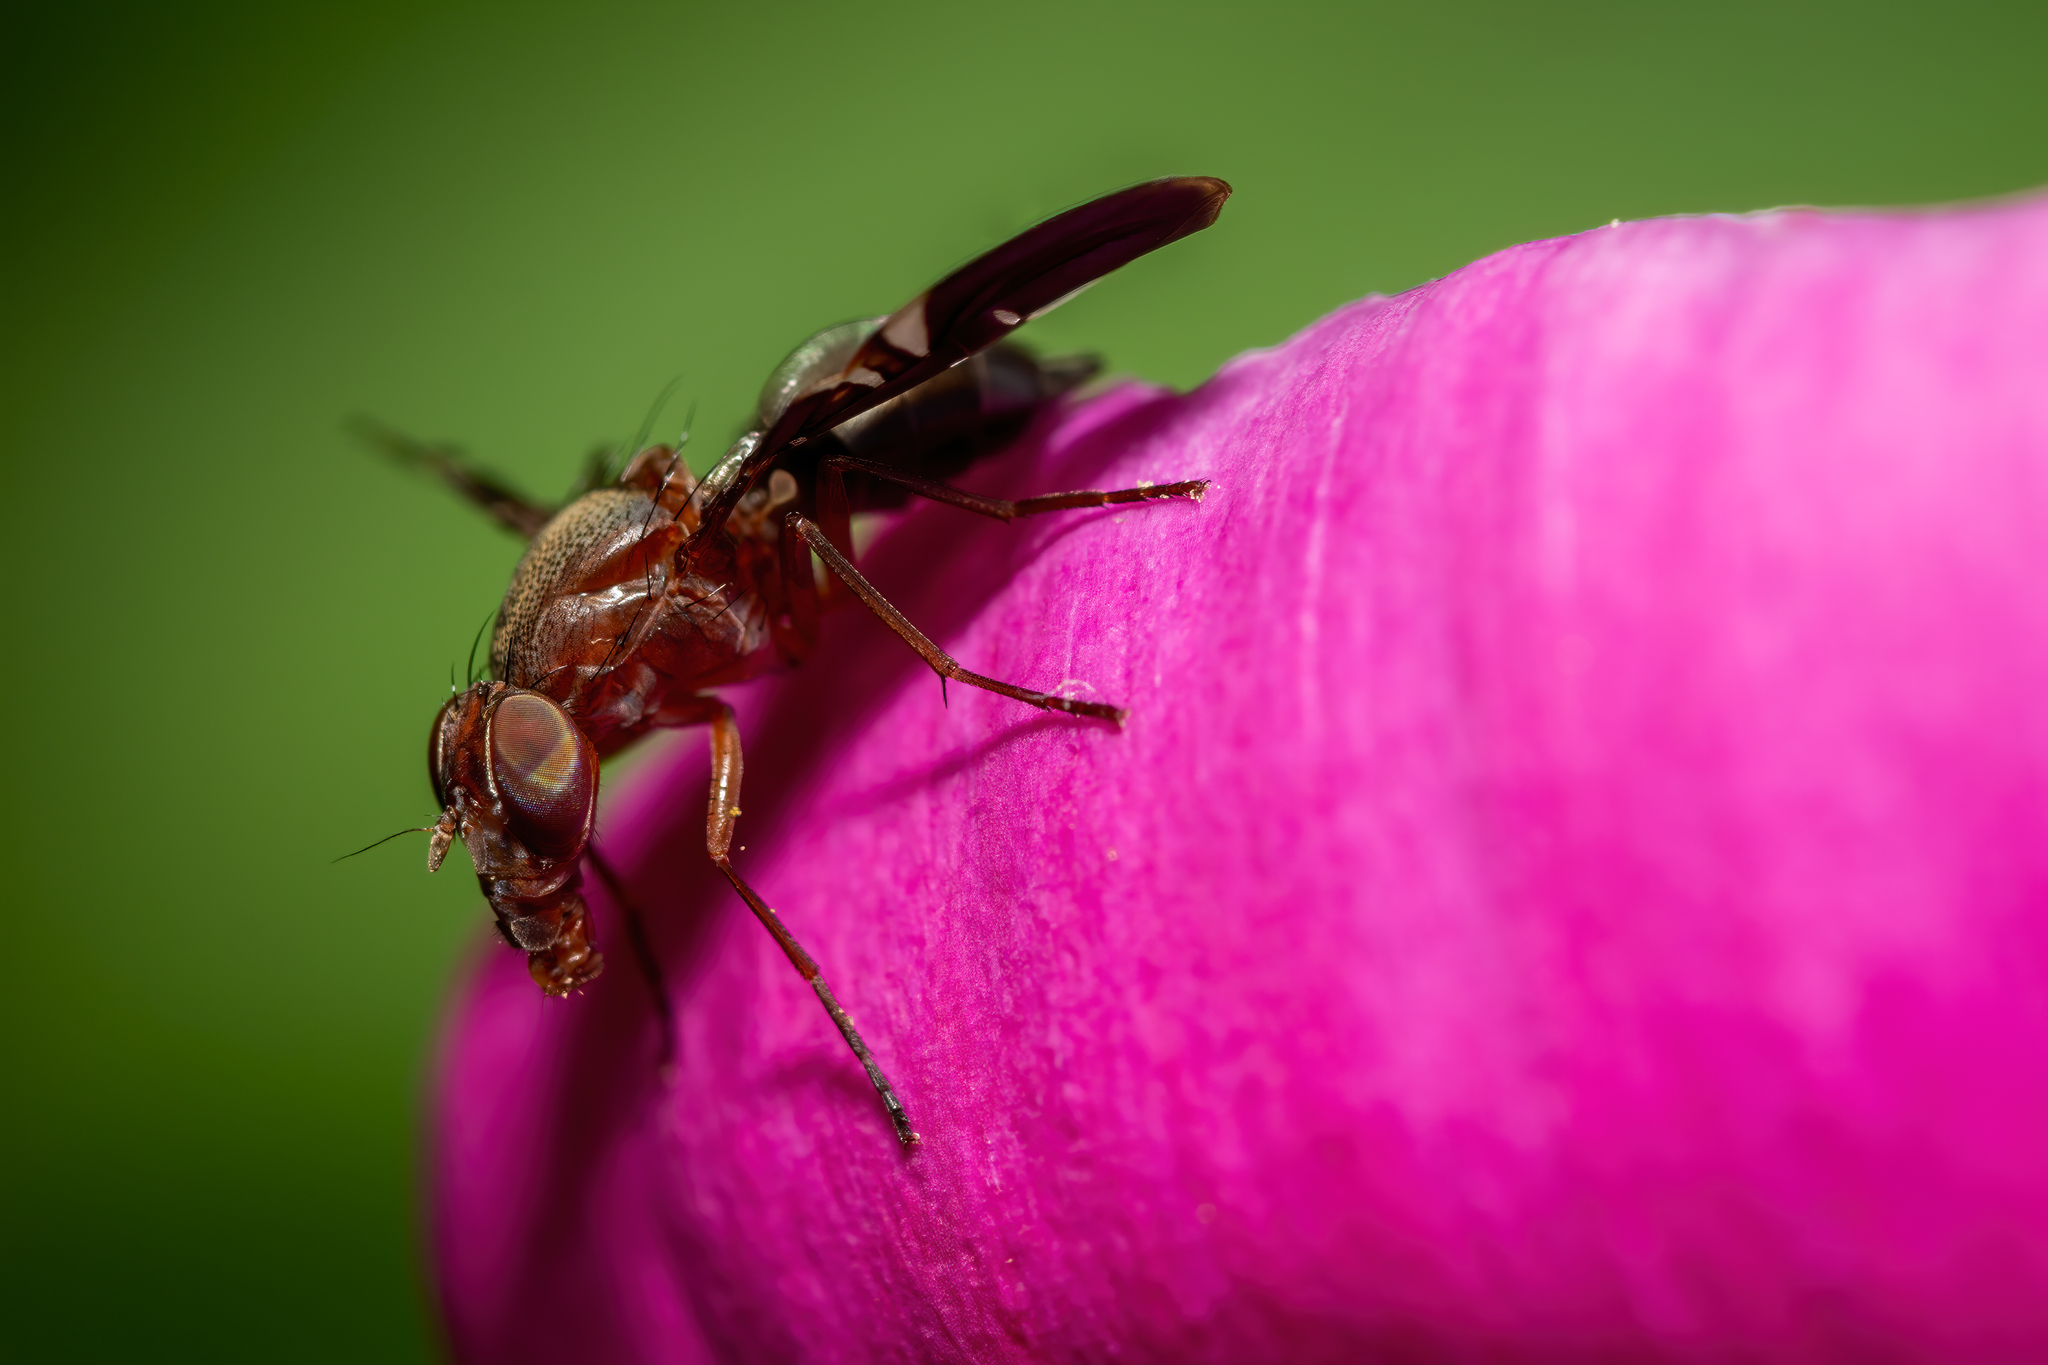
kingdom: Animalia
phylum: Arthropoda
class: Insecta
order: Diptera
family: Ulidiidae
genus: Delphinia
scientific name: Delphinia picta
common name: Common picture-winged fly
